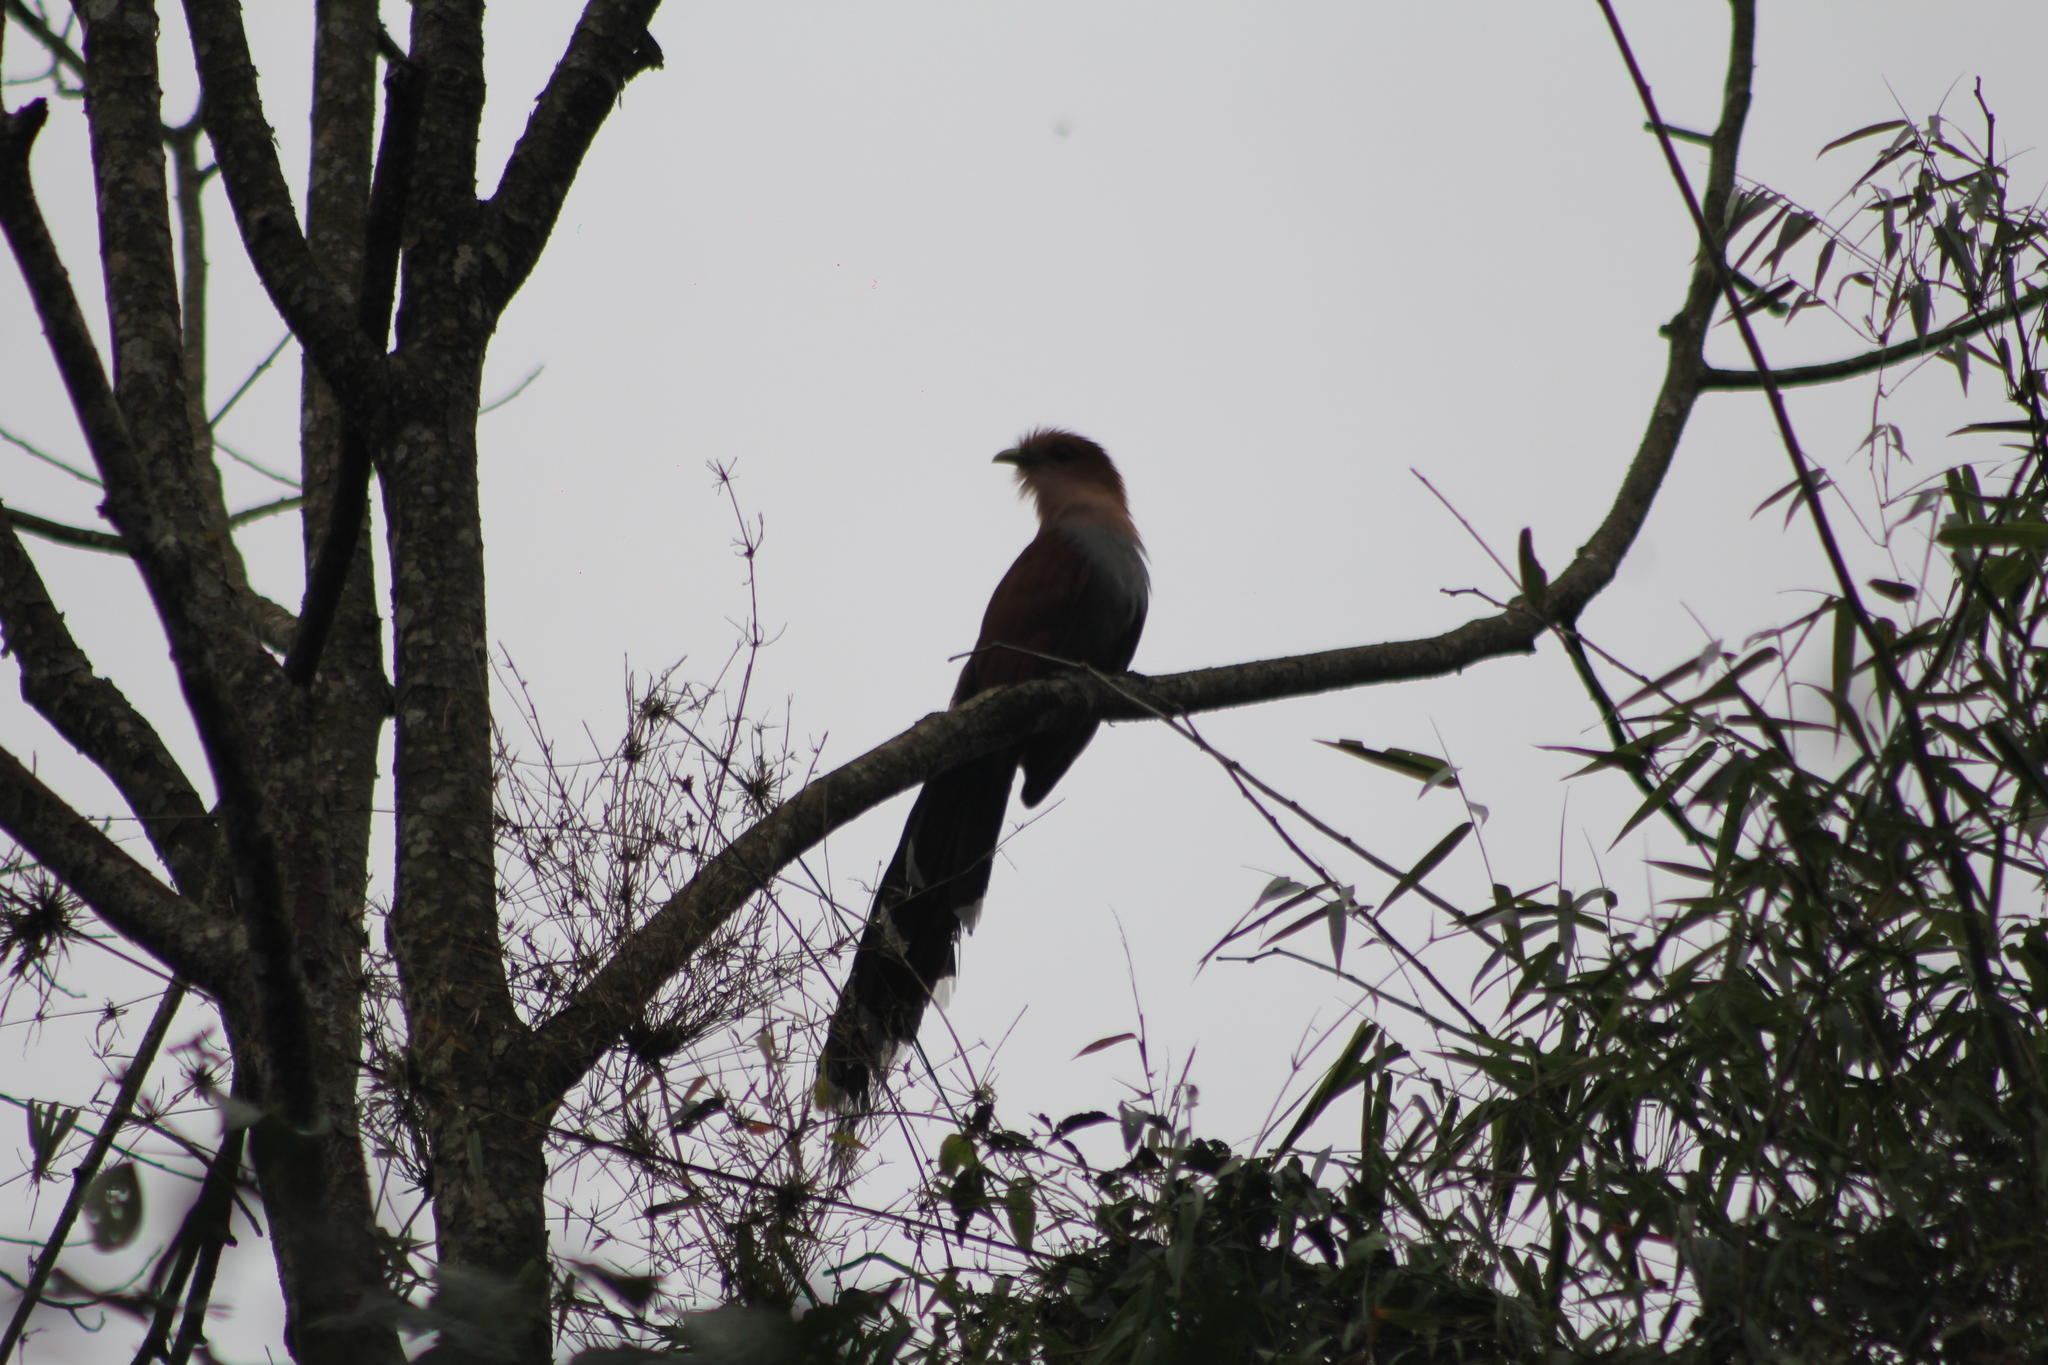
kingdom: Animalia
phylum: Chordata
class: Aves
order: Cuculiformes
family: Cuculidae
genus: Piaya
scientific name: Piaya cayana
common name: Squirrel cuckoo
